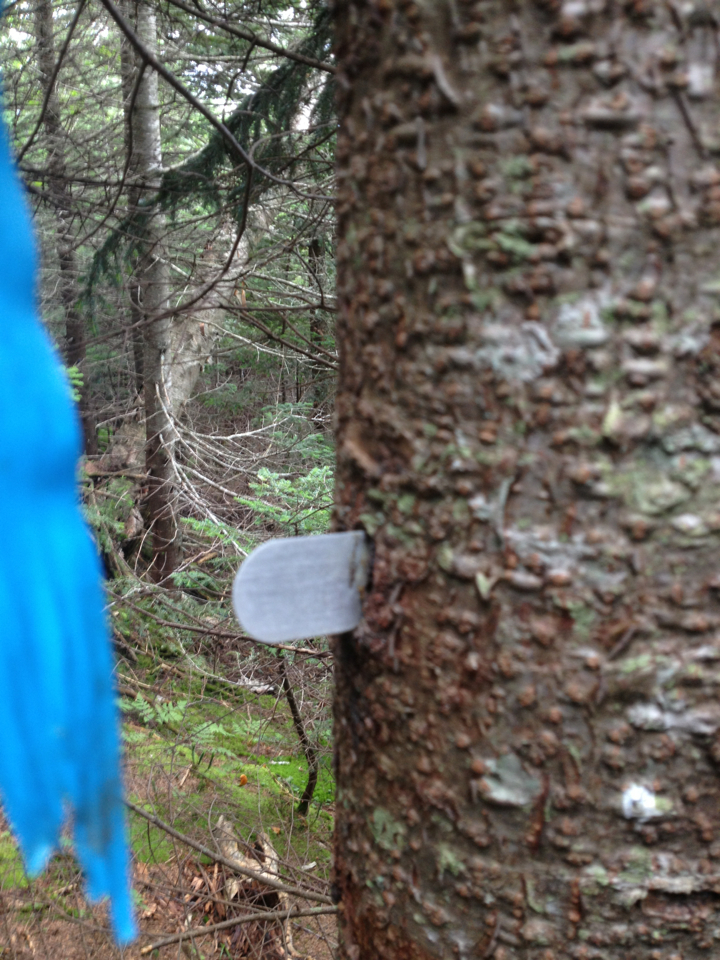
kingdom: Plantae
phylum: Tracheophyta
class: Pinopsida
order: Pinales
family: Pinaceae
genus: Abies
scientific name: Abies balsamea
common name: Balsam fir
